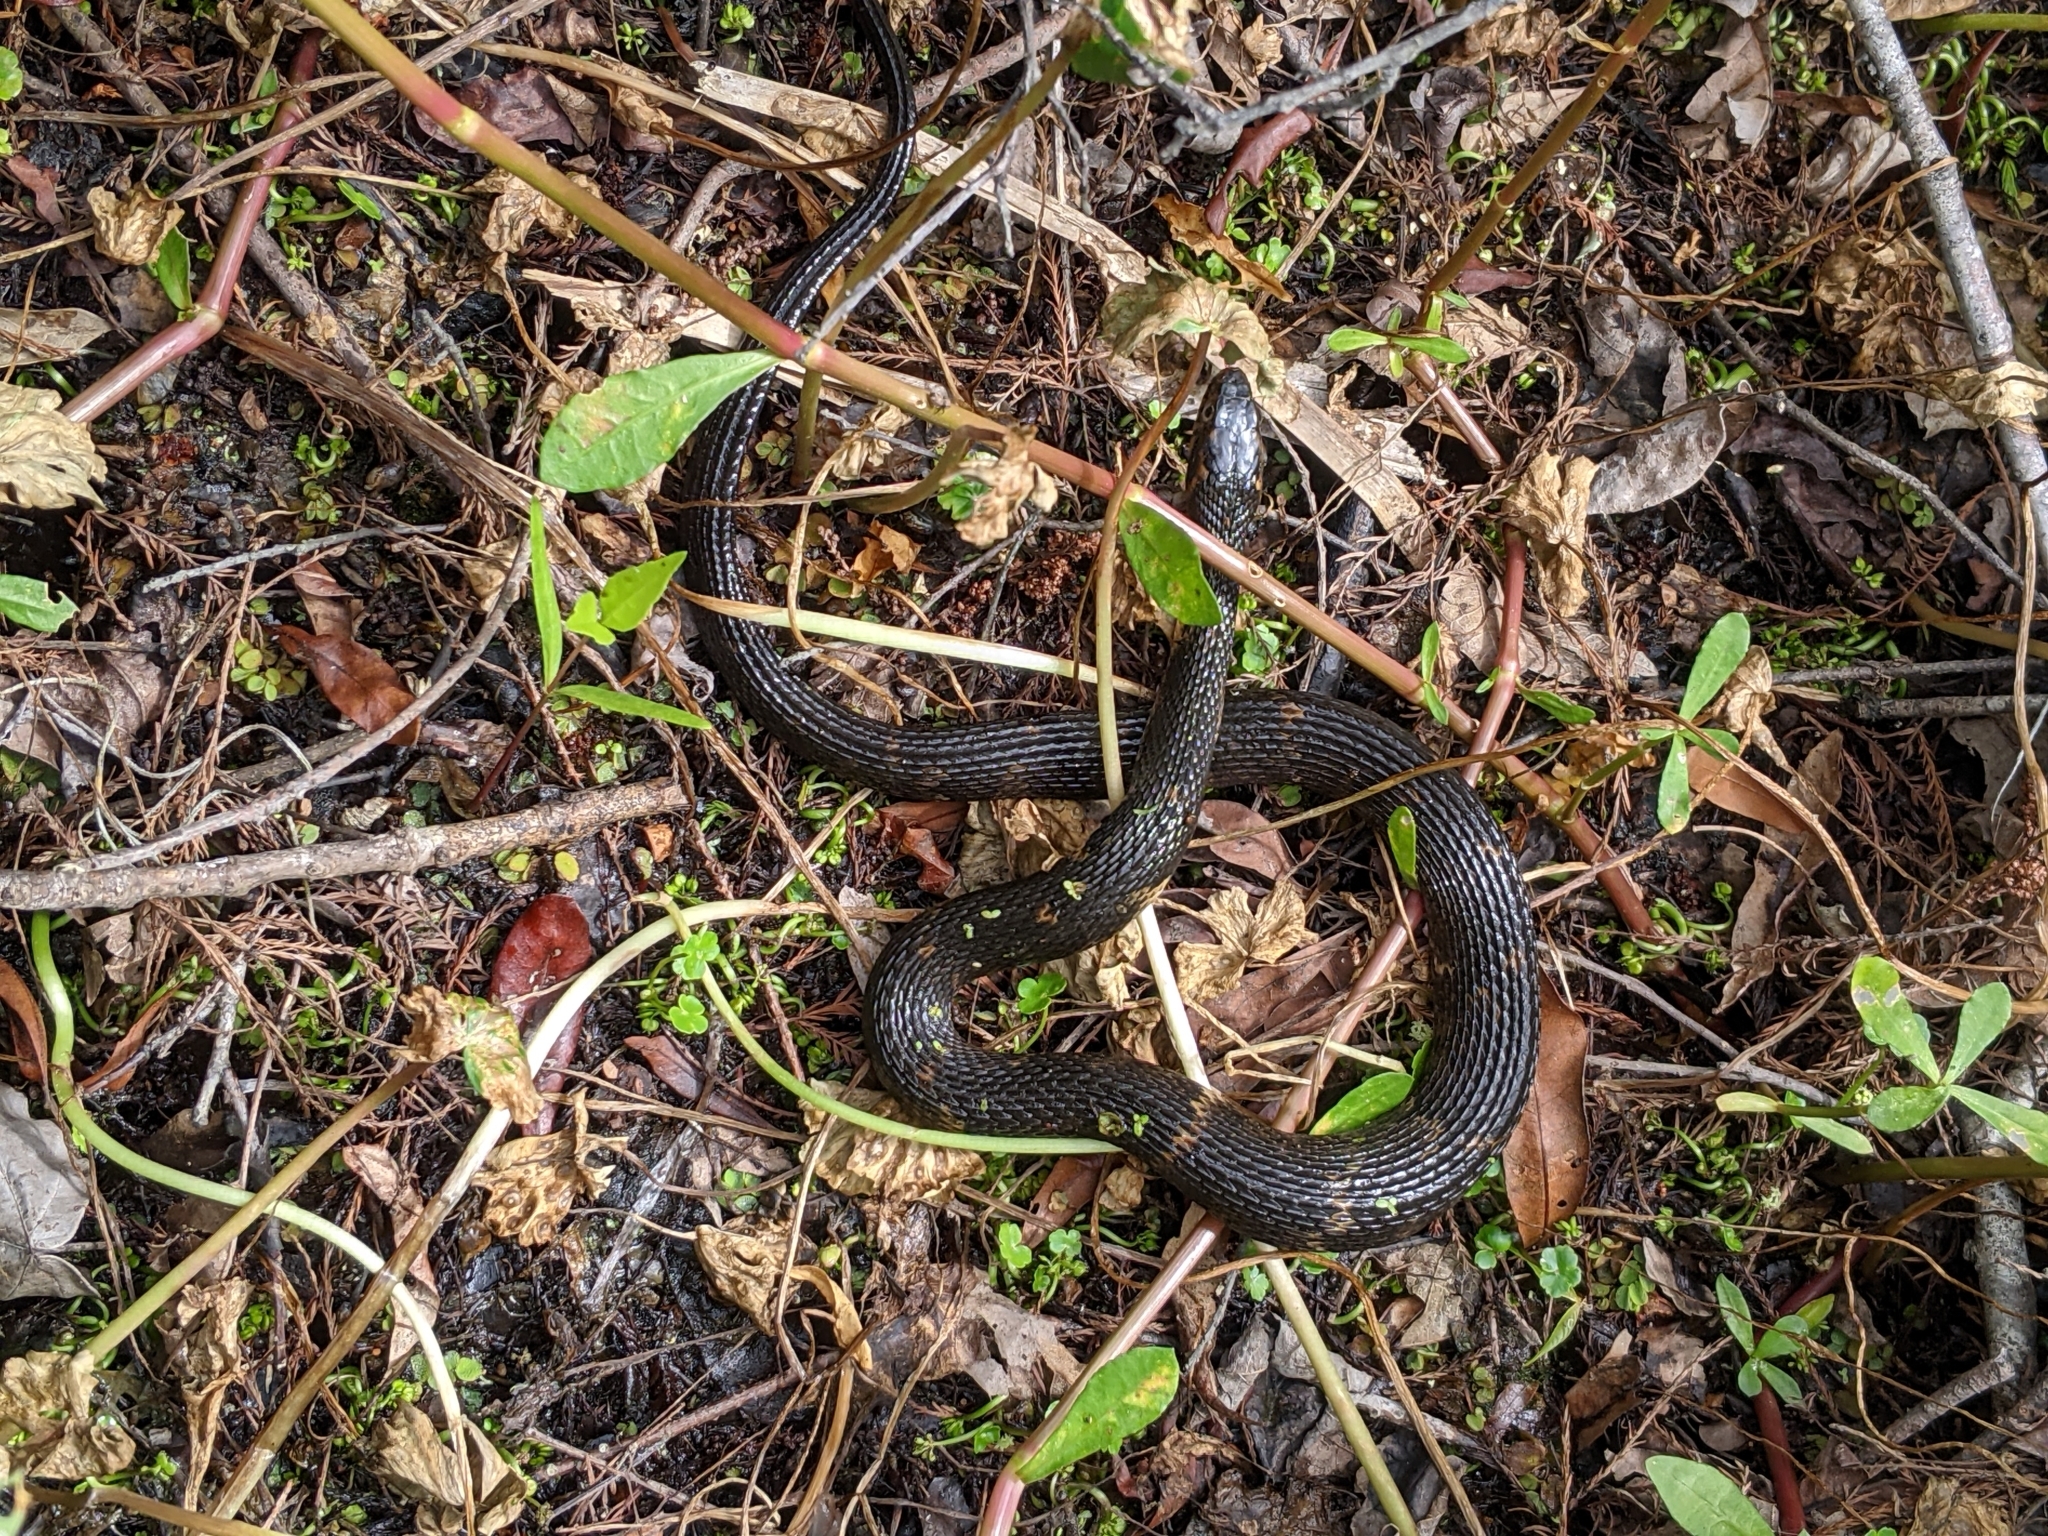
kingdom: Animalia
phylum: Chordata
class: Squamata
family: Colubridae
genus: Nerodia
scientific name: Nerodia fasciata
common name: Southern water snake
